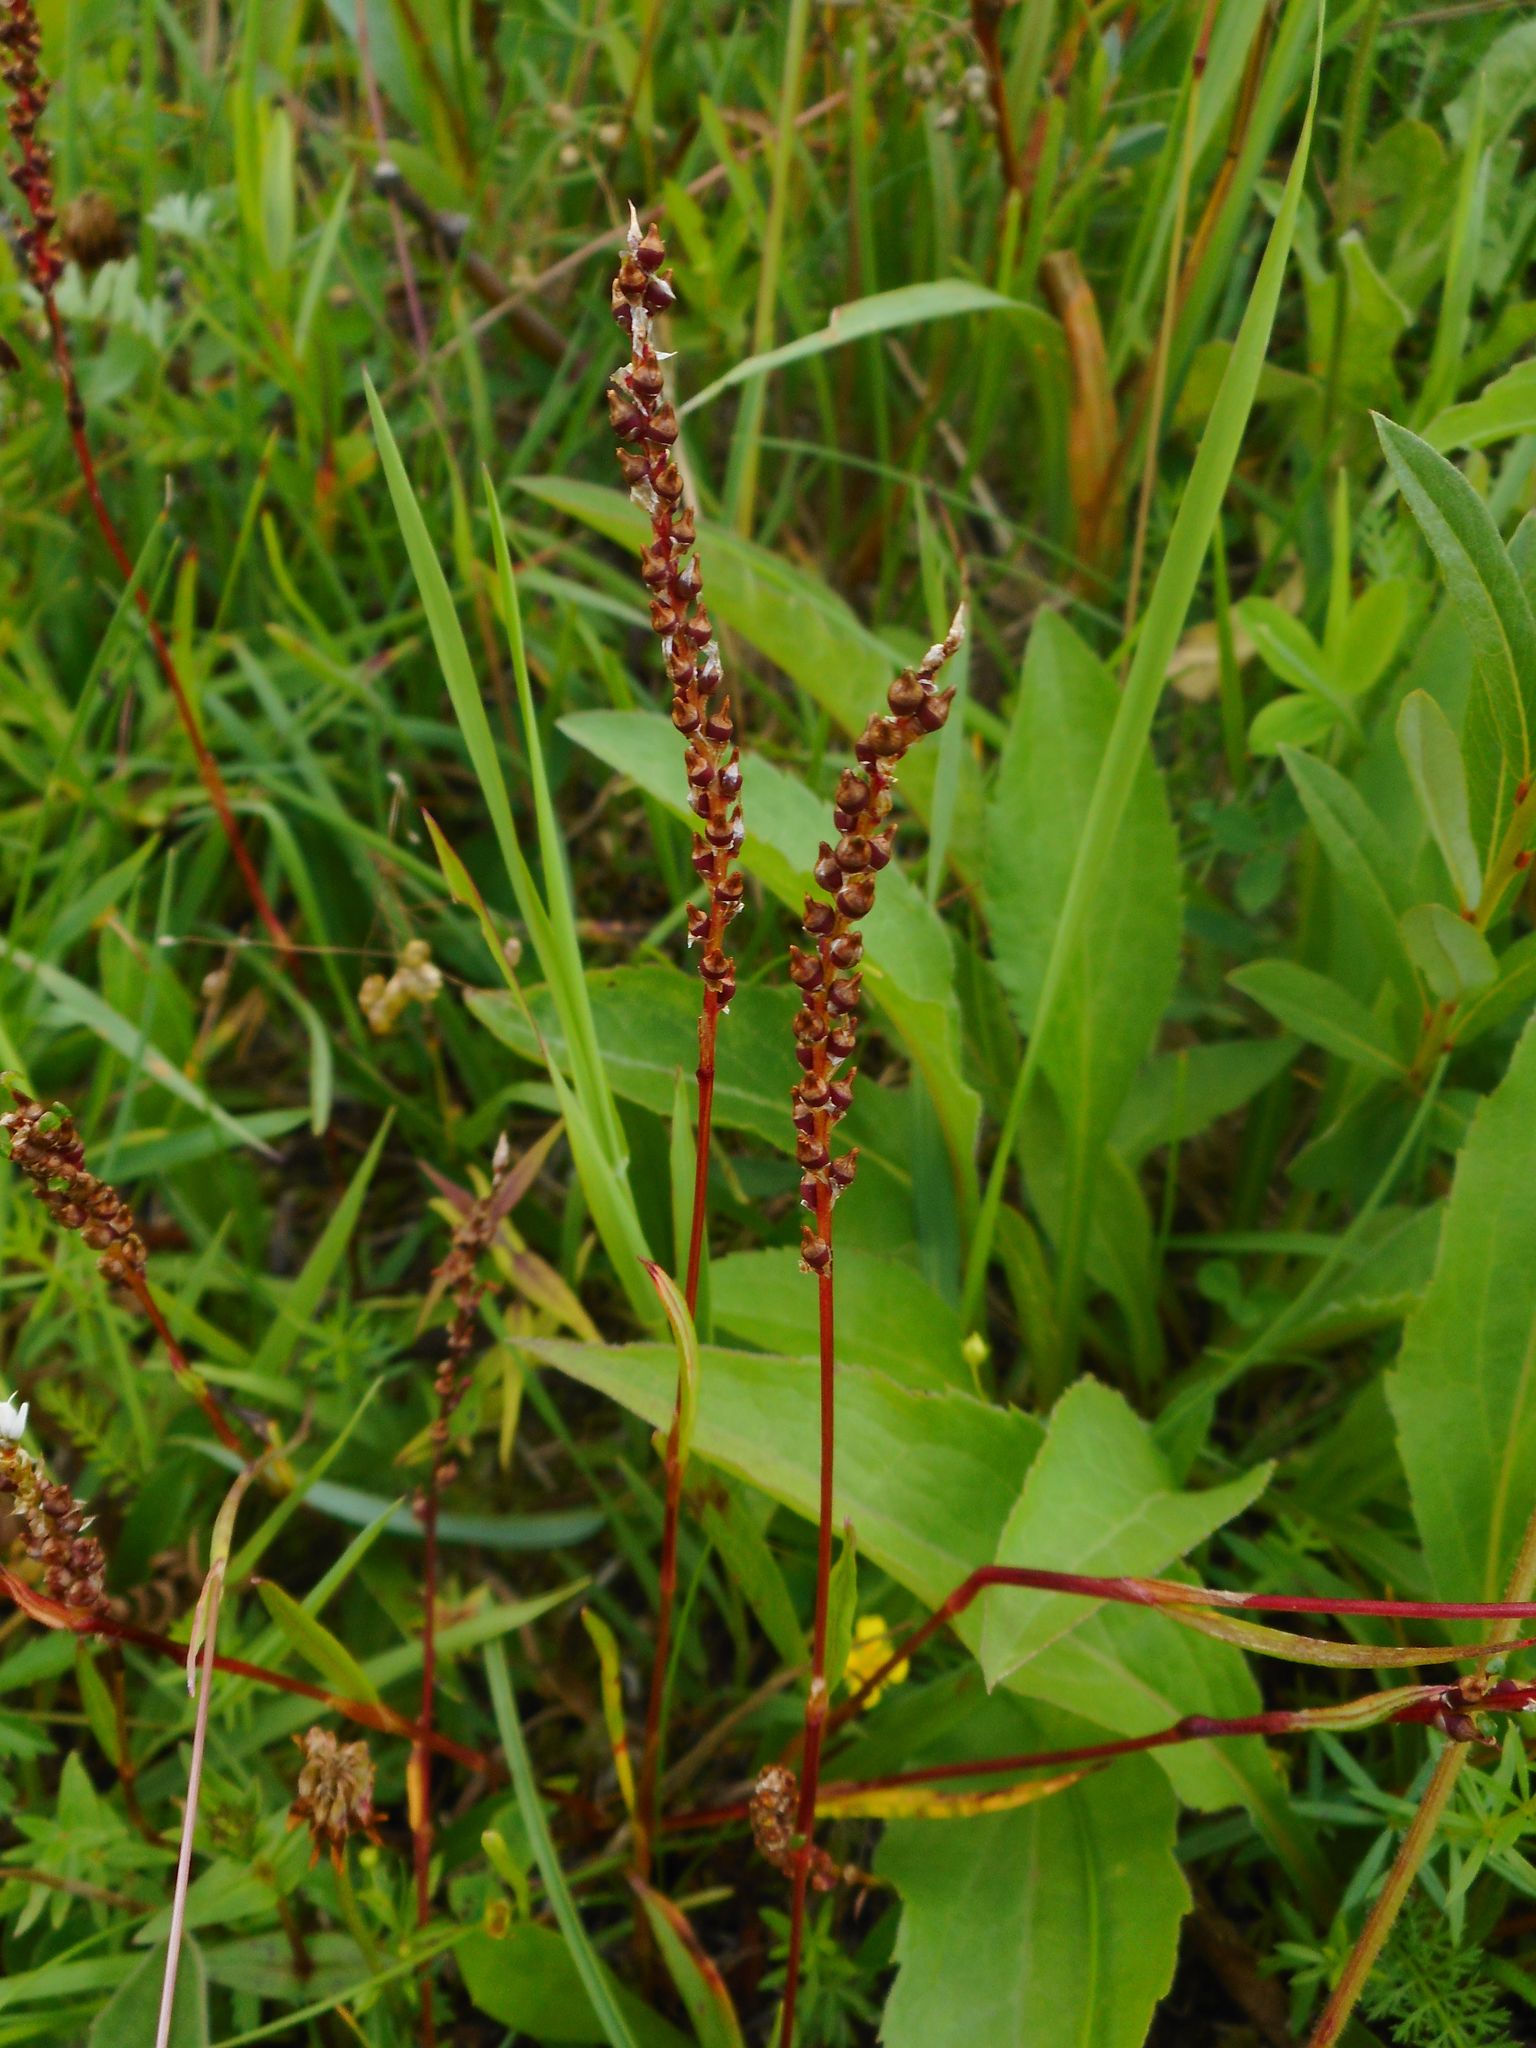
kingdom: Plantae
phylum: Tracheophyta
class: Magnoliopsida
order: Caryophyllales
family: Polygonaceae
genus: Bistorta
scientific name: Bistorta vivipara
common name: Alpine bistort
